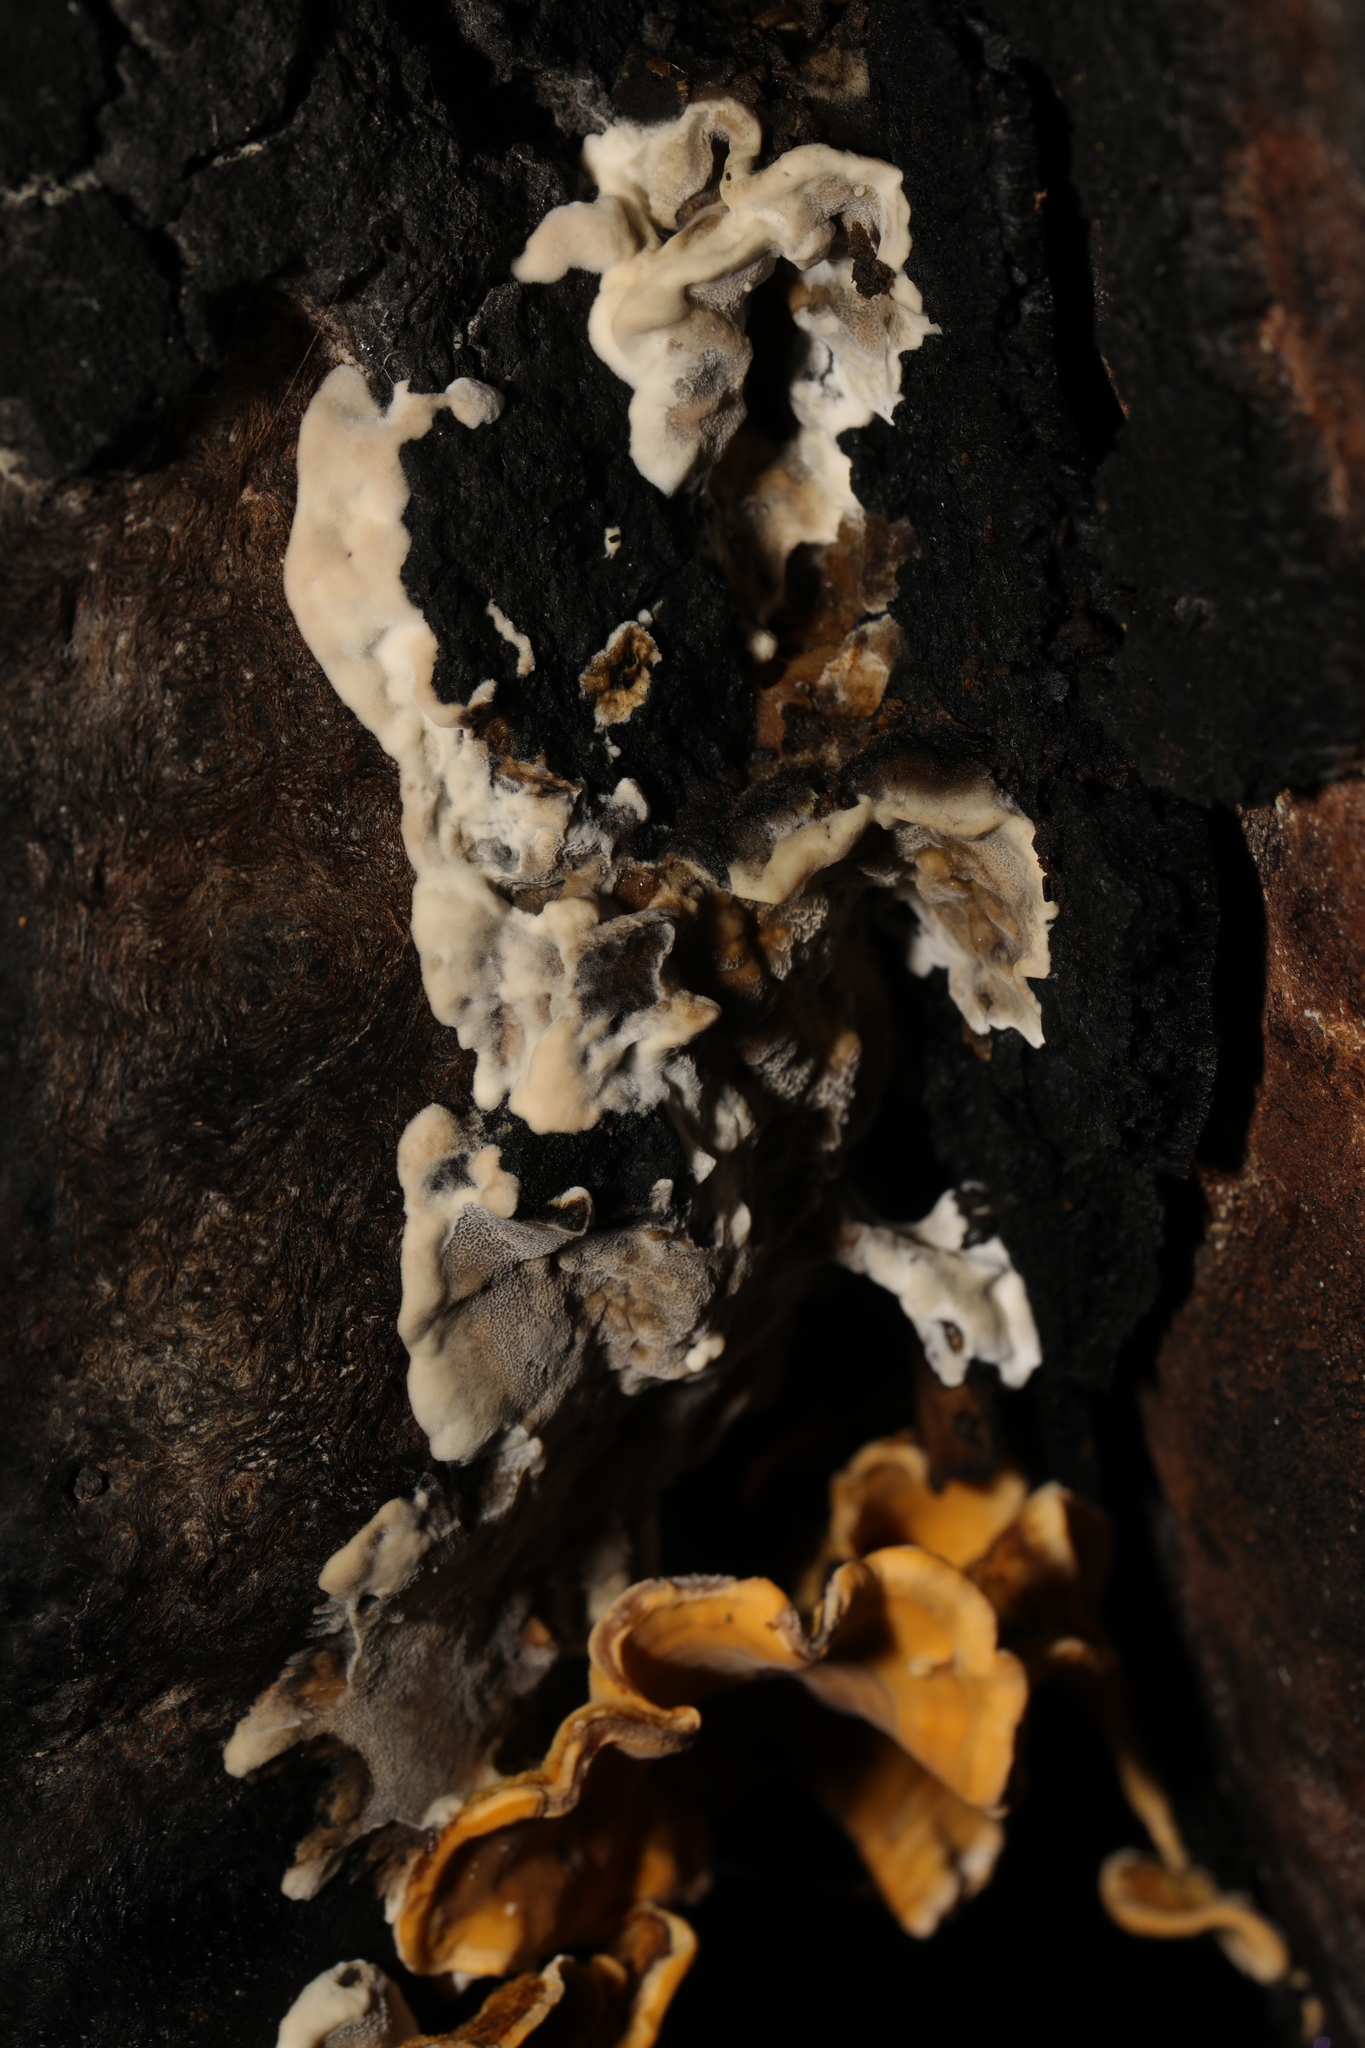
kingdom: Fungi
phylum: Basidiomycota
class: Agaricomycetes
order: Polyporales
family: Phanerochaetaceae
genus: Bjerkandera
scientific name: Bjerkandera adusta
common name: Smoky bracket
